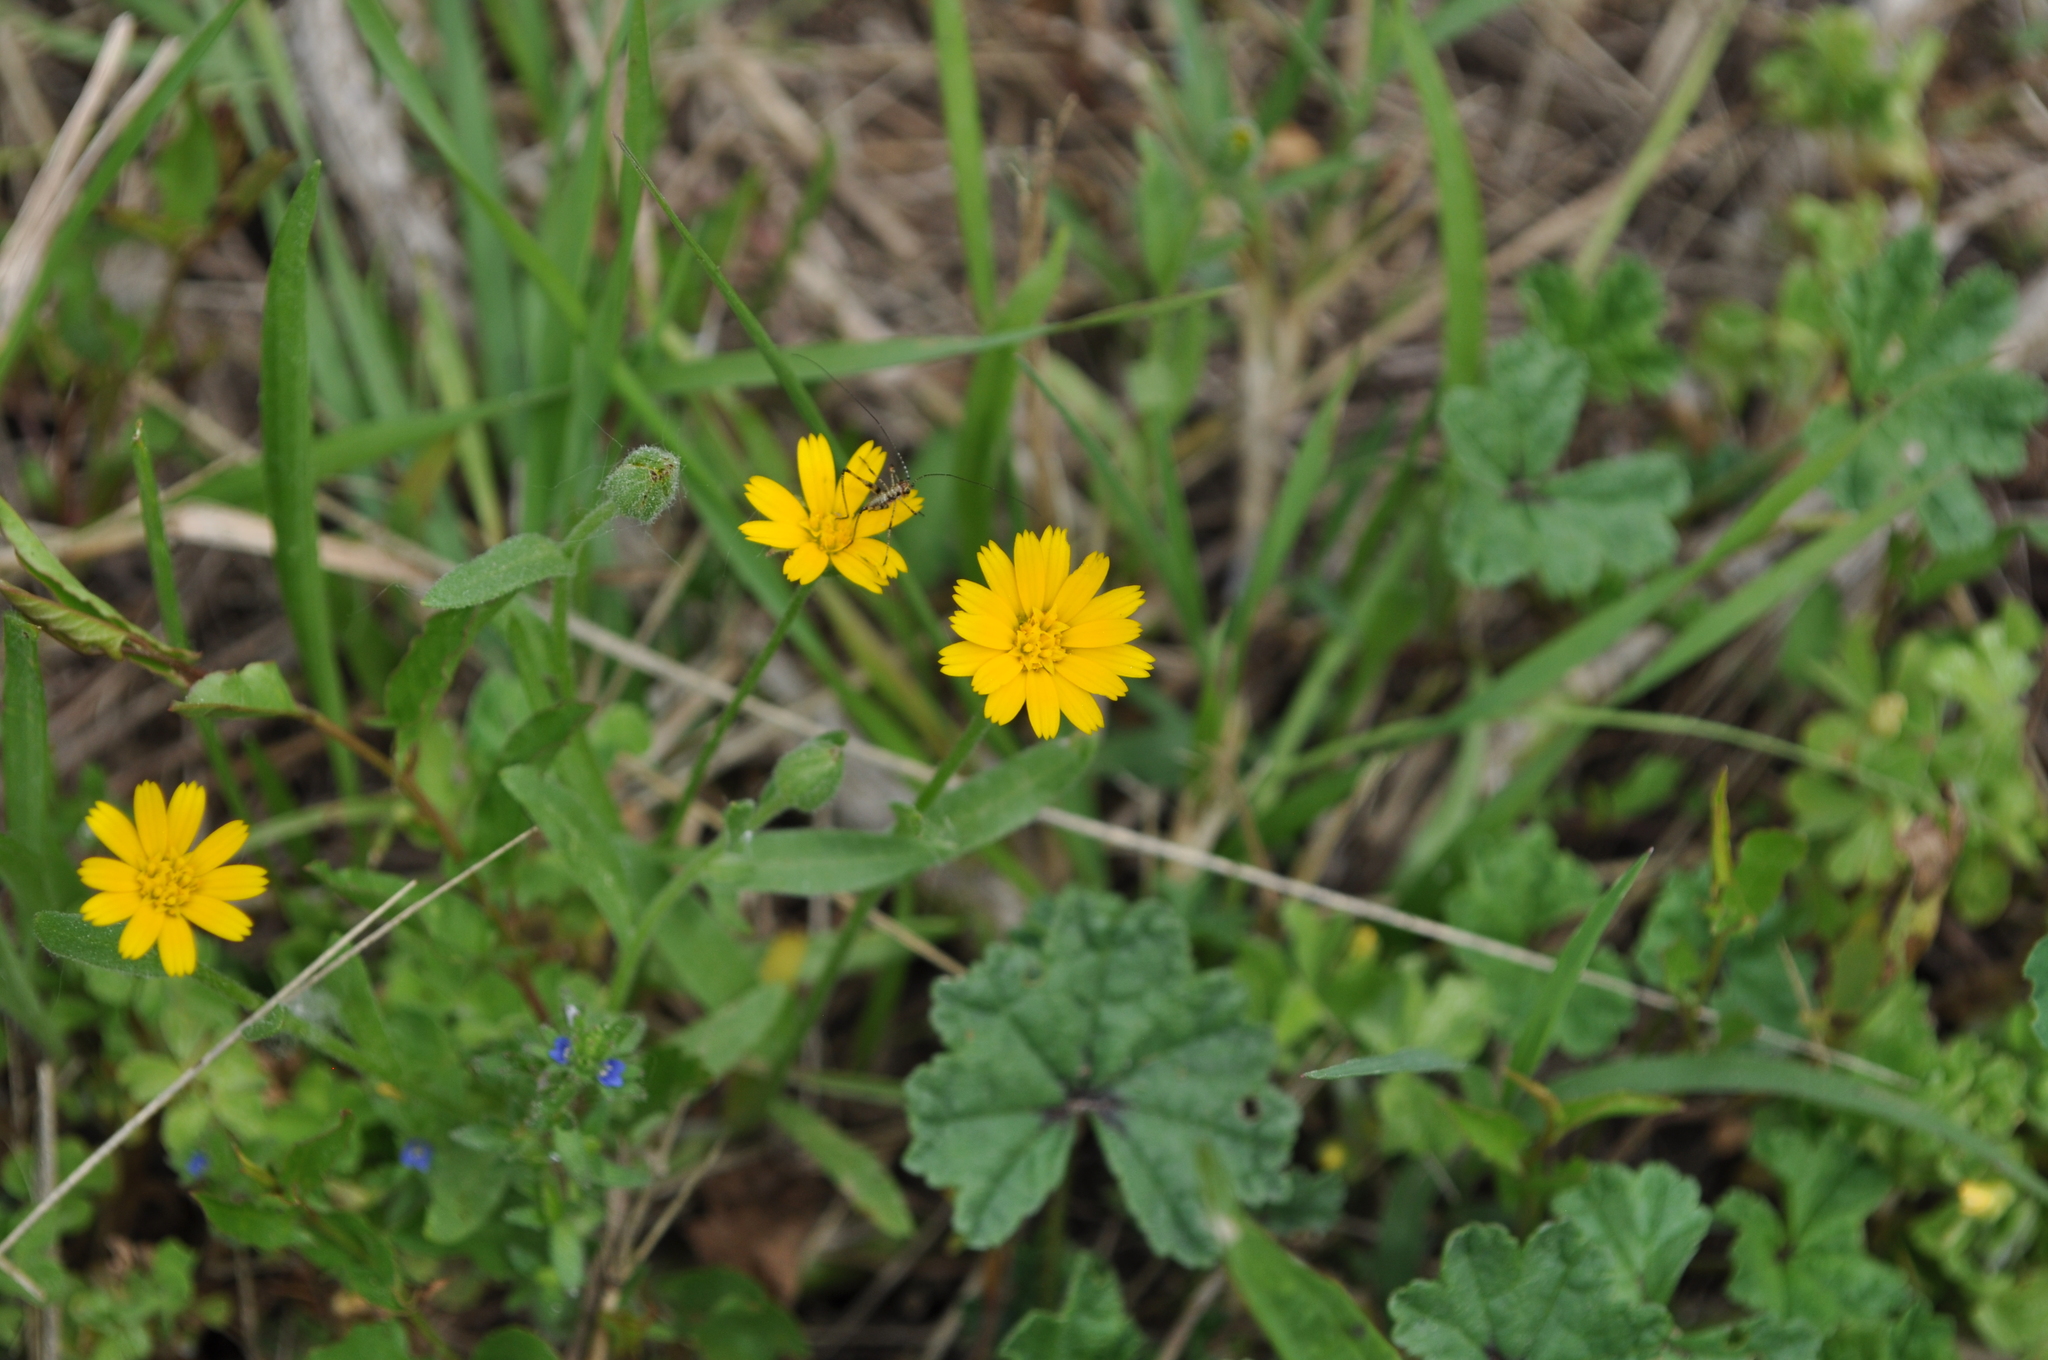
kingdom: Plantae
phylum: Tracheophyta
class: Magnoliopsida
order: Asterales
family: Asteraceae
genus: Calendula
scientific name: Calendula arvensis
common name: Field marigold
